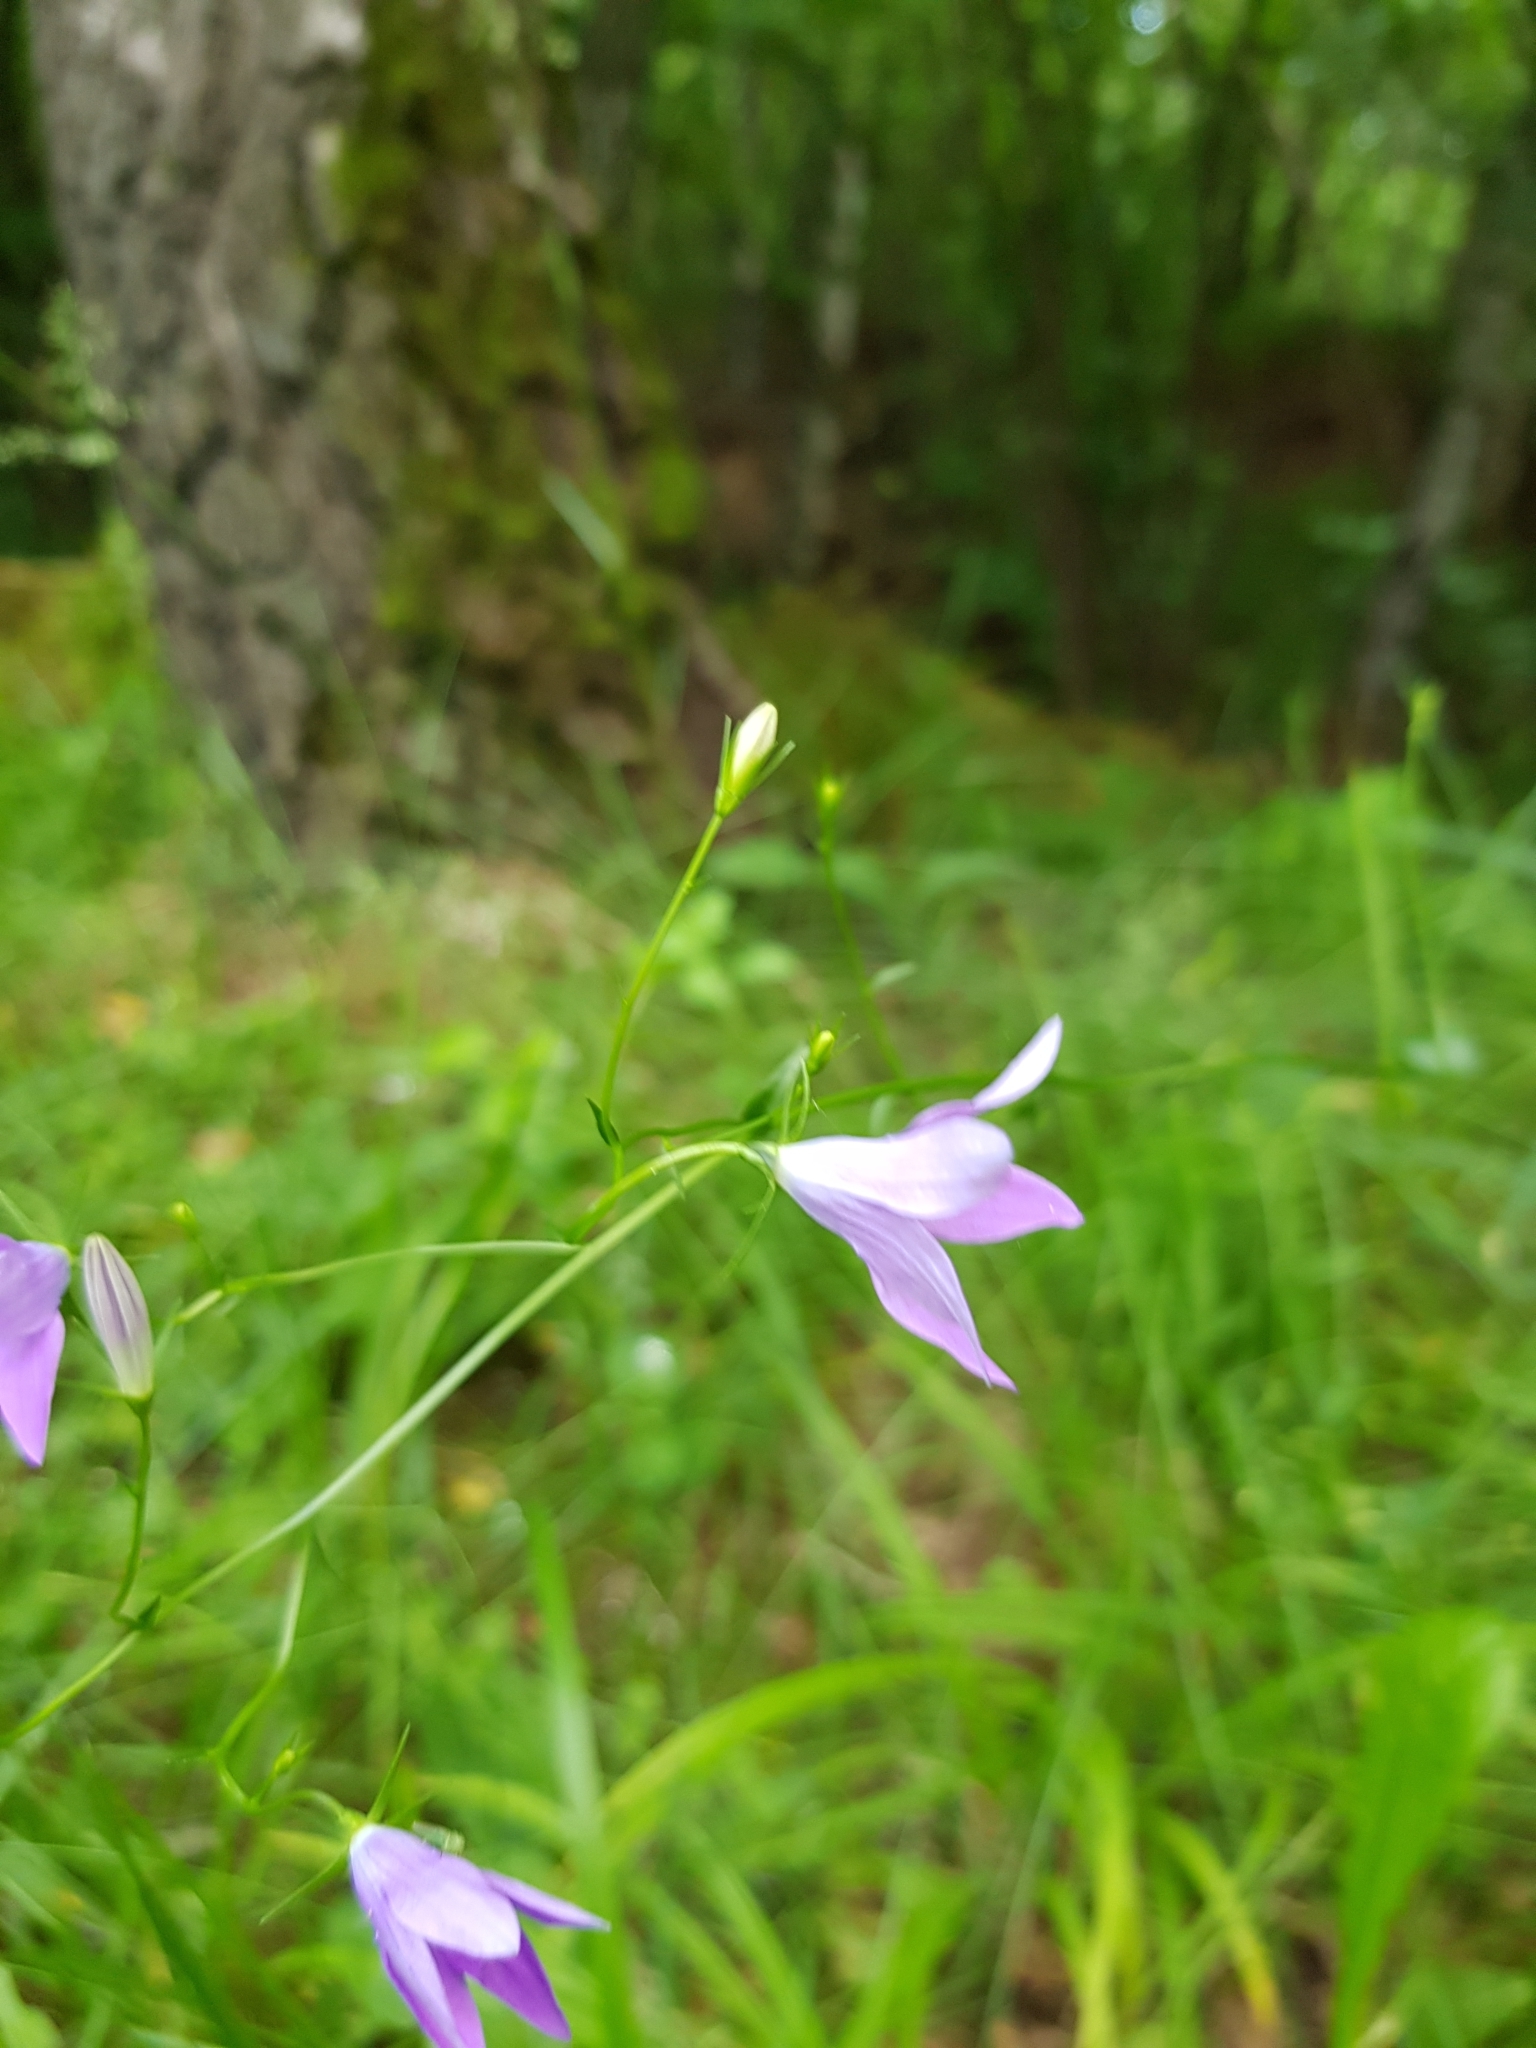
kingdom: Plantae
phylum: Tracheophyta
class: Magnoliopsida
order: Asterales
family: Campanulaceae
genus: Campanula
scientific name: Campanula patula
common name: Spreading bellflower
